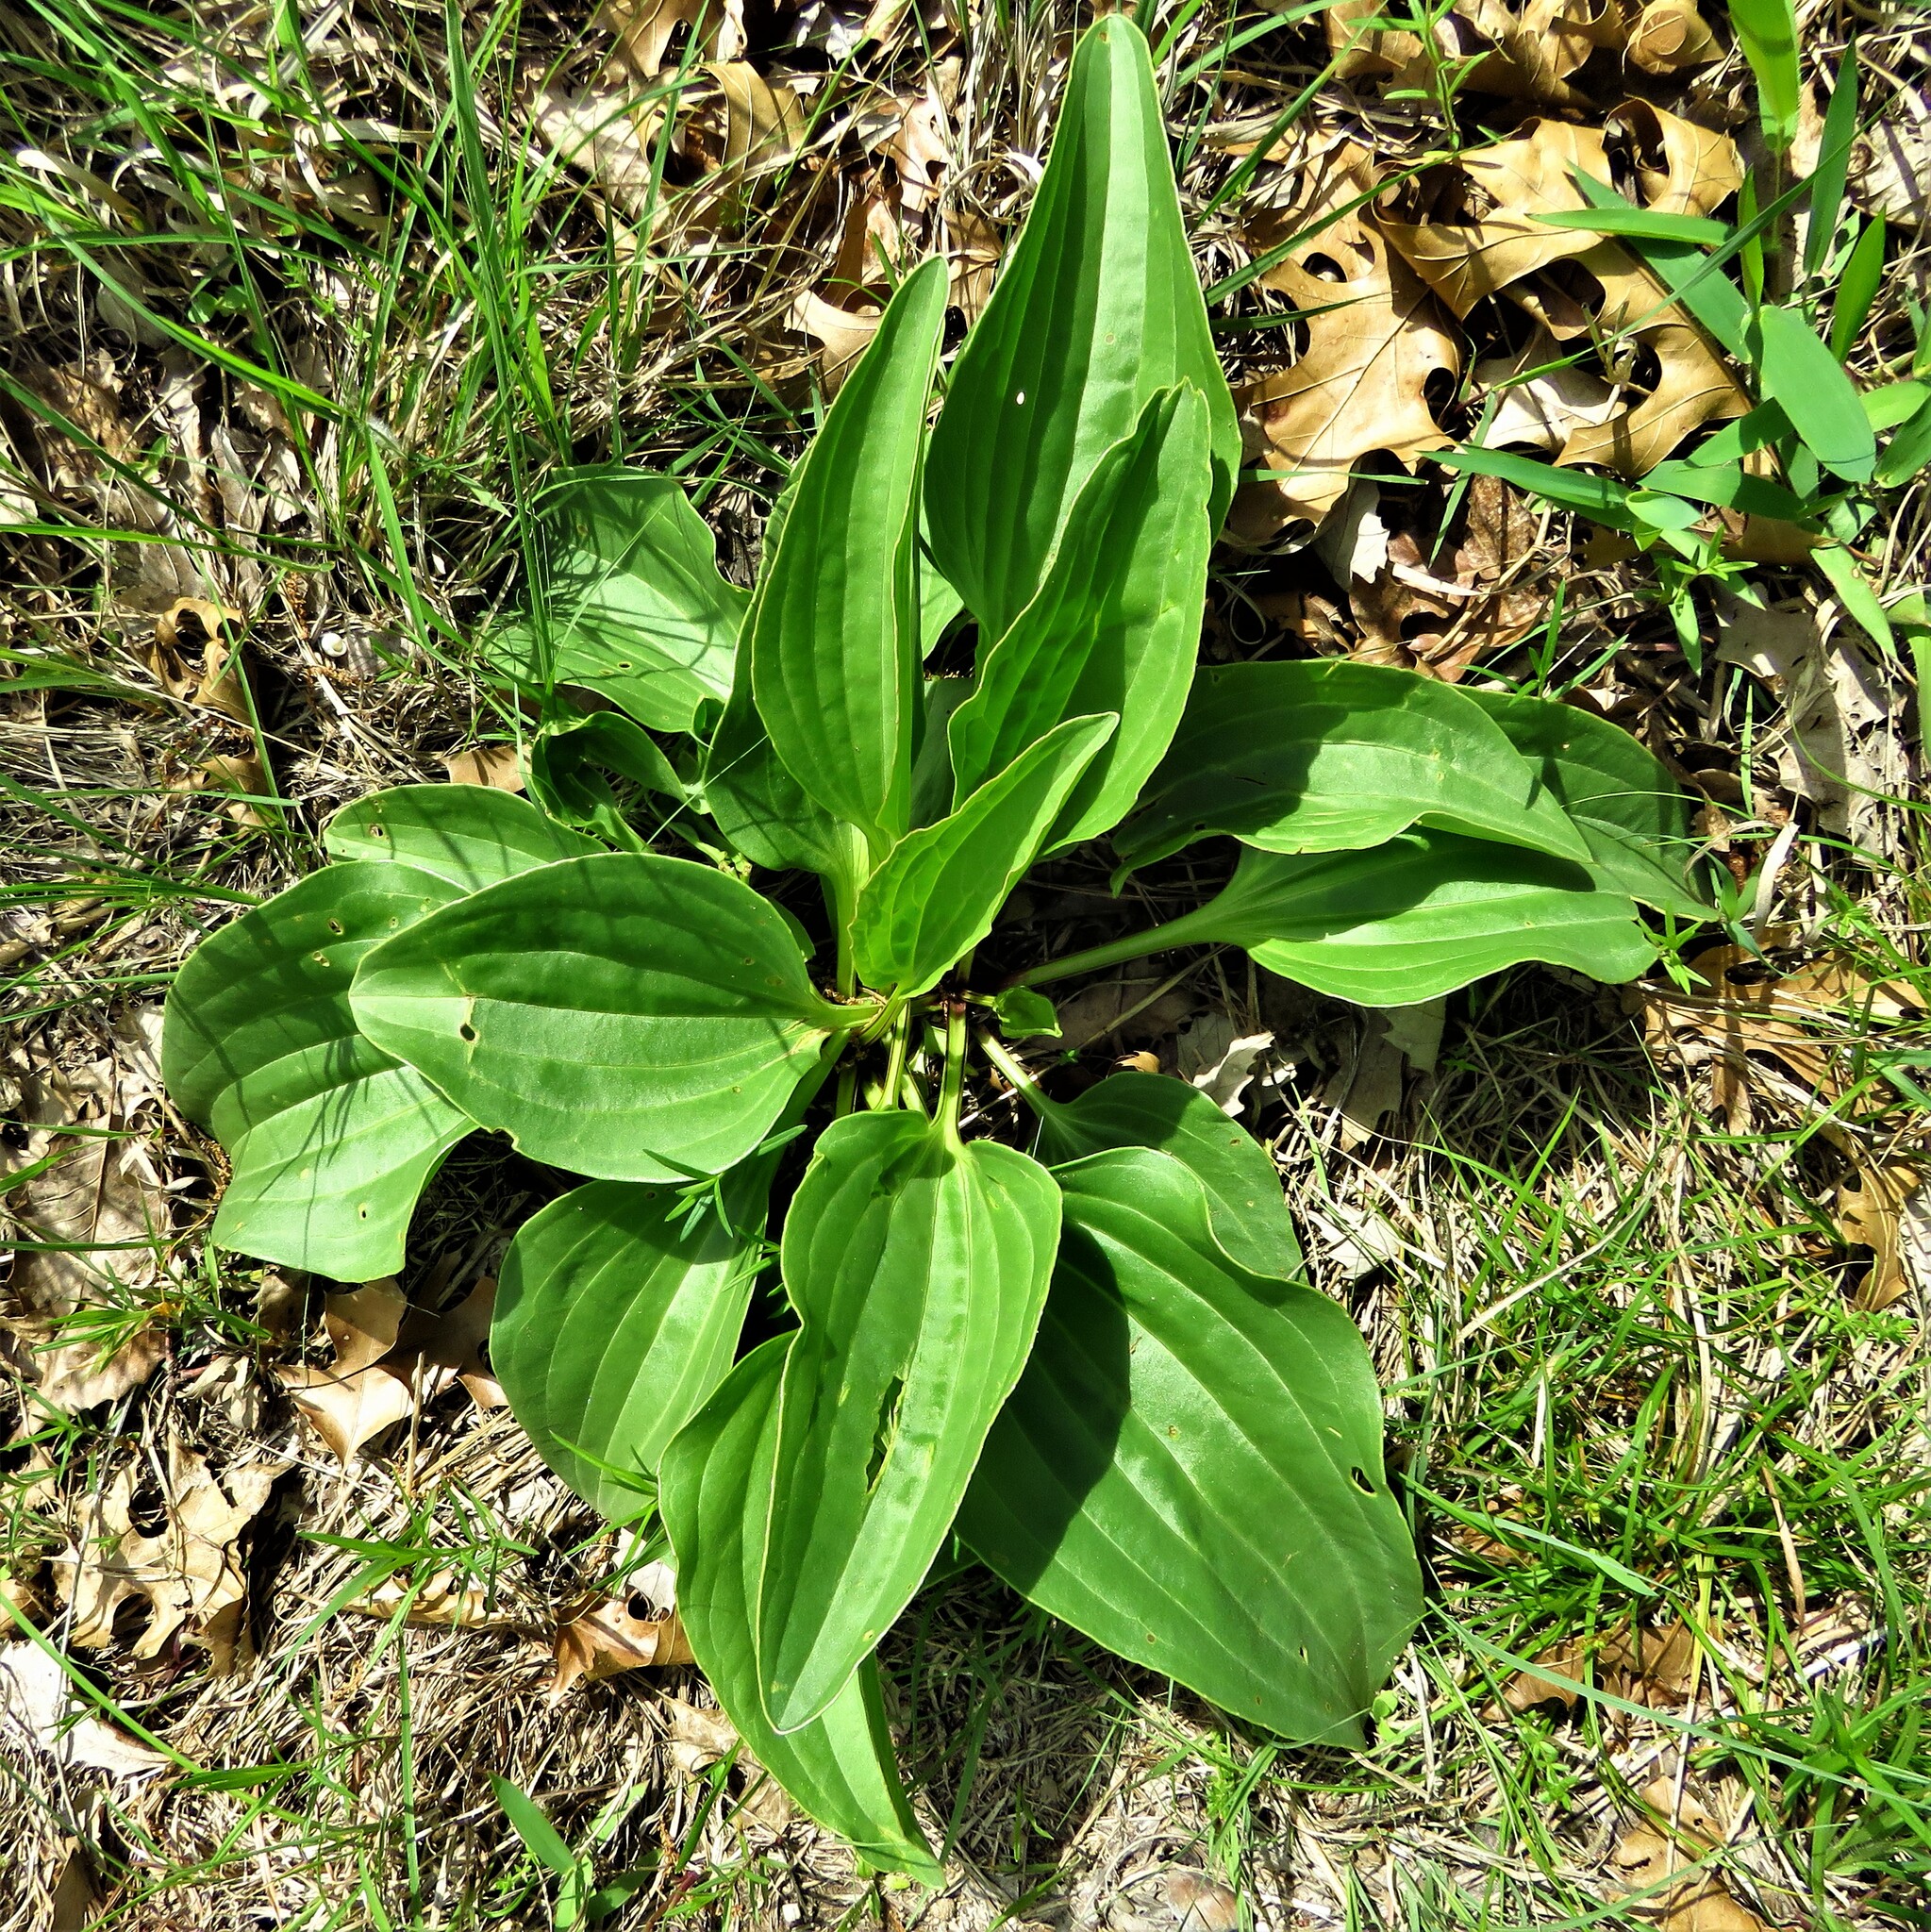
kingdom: Plantae
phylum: Tracheophyta
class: Magnoliopsida
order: Asterales
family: Asteraceae
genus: Arnoglossum
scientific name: Arnoglossum plantagineum
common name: Groove-stemmed indian-plantain
